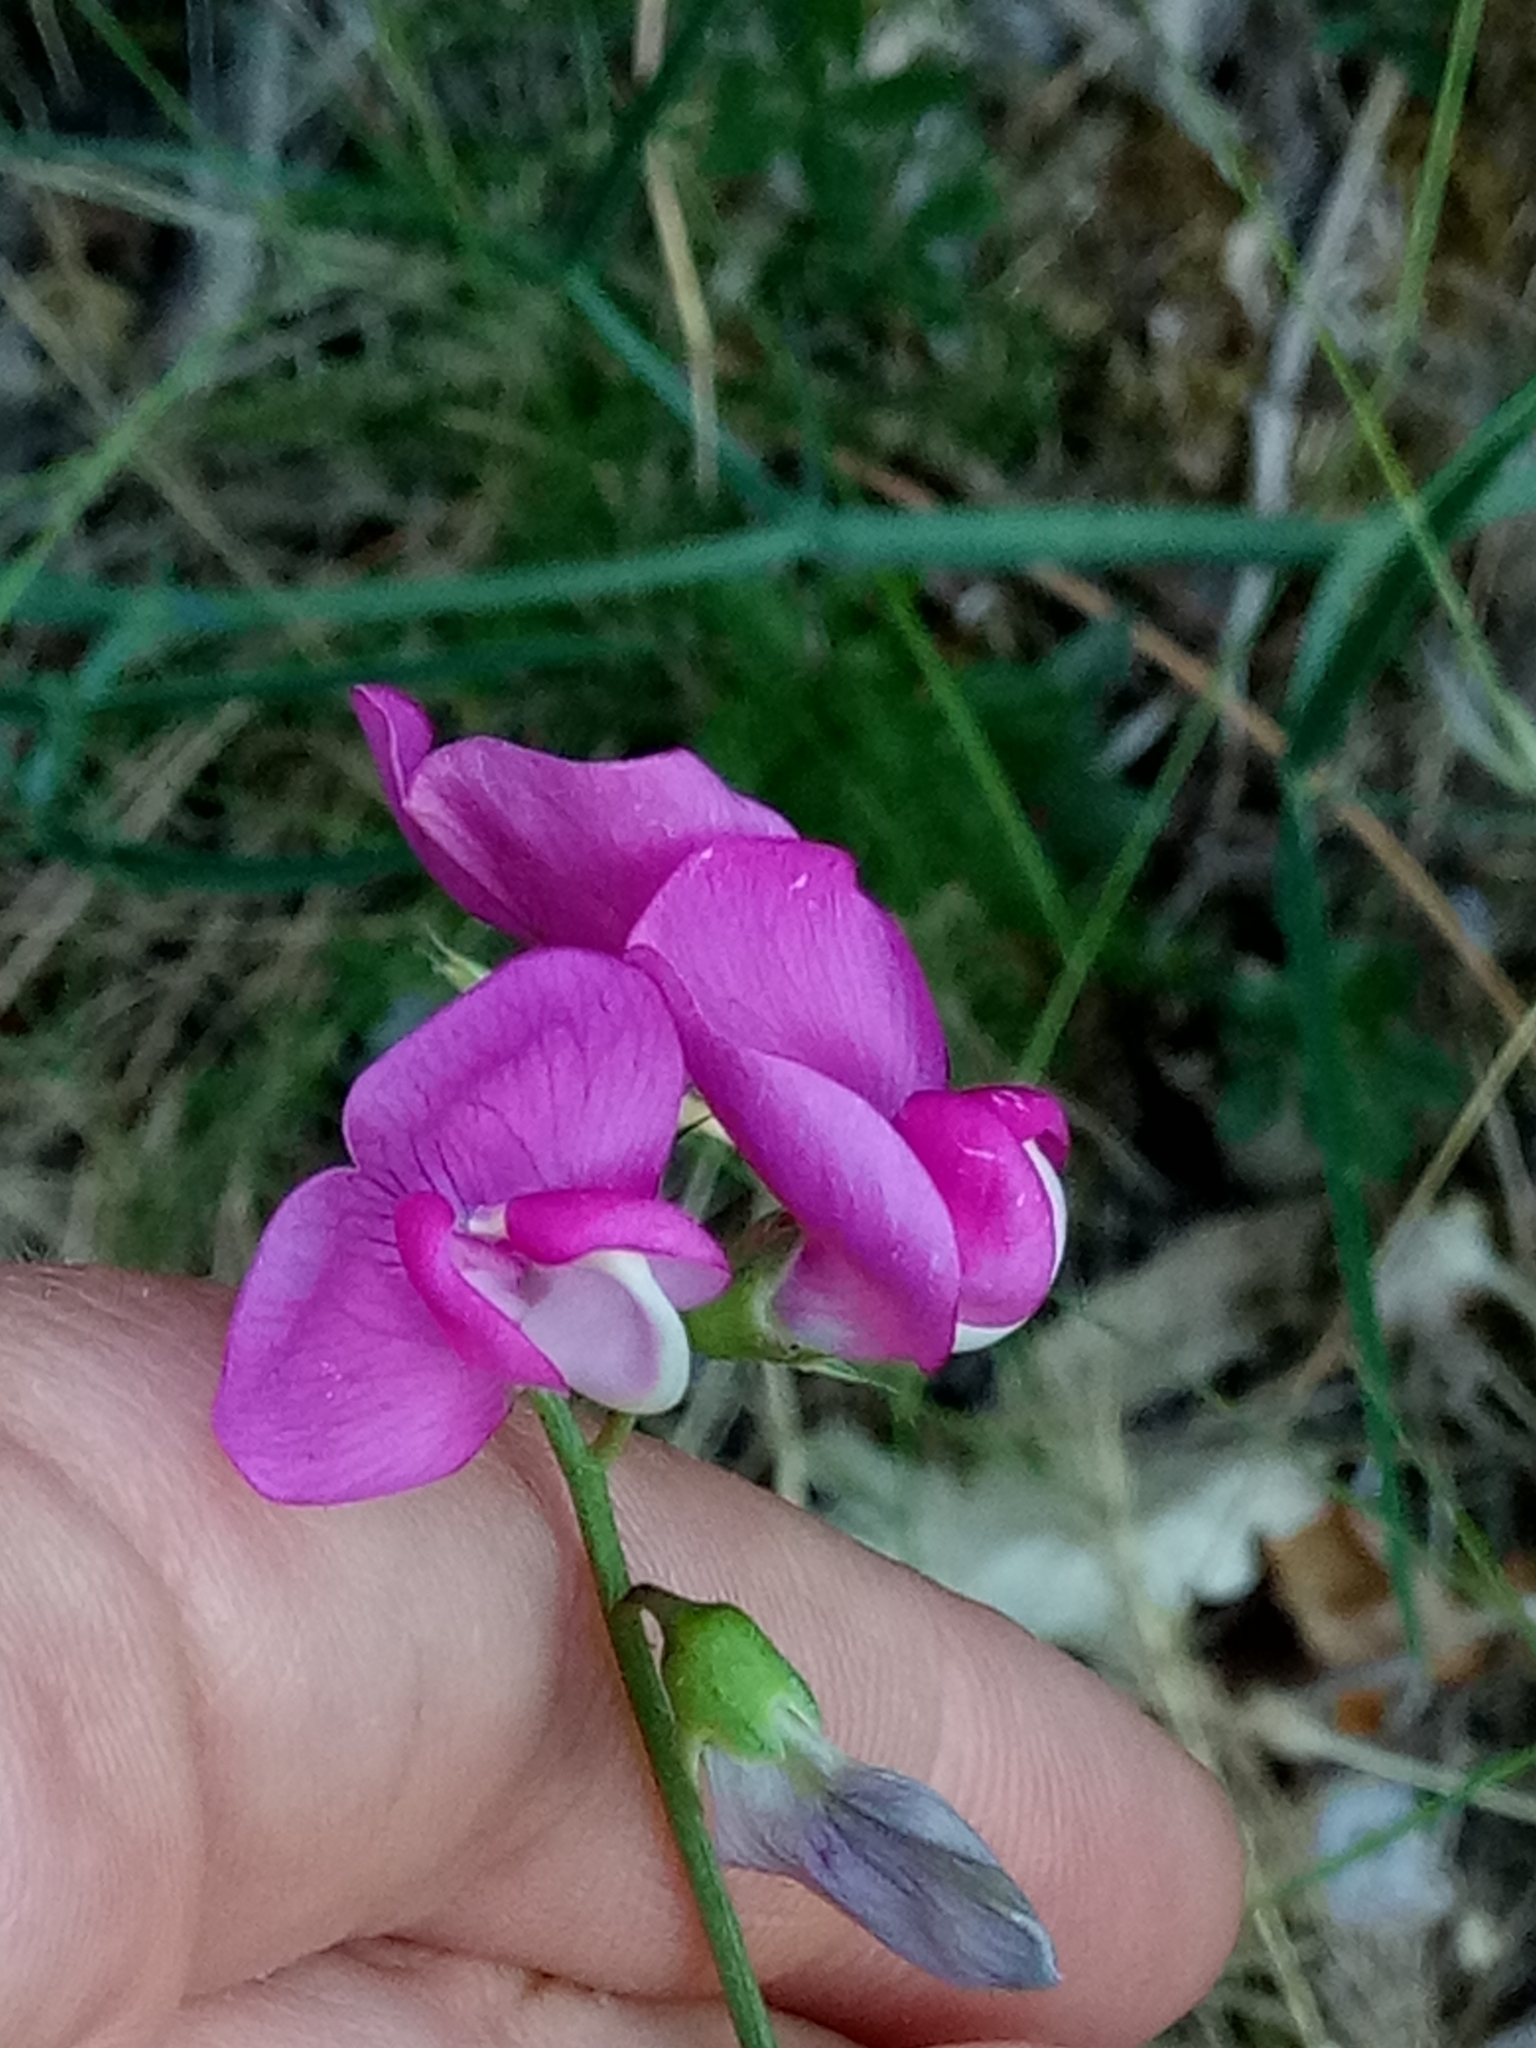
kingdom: Plantae
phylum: Tracheophyta
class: Magnoliopsida
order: Fabales
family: Fabaceae
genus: Lathyrus
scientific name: Lathyrus latifolius
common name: Perennial pea
